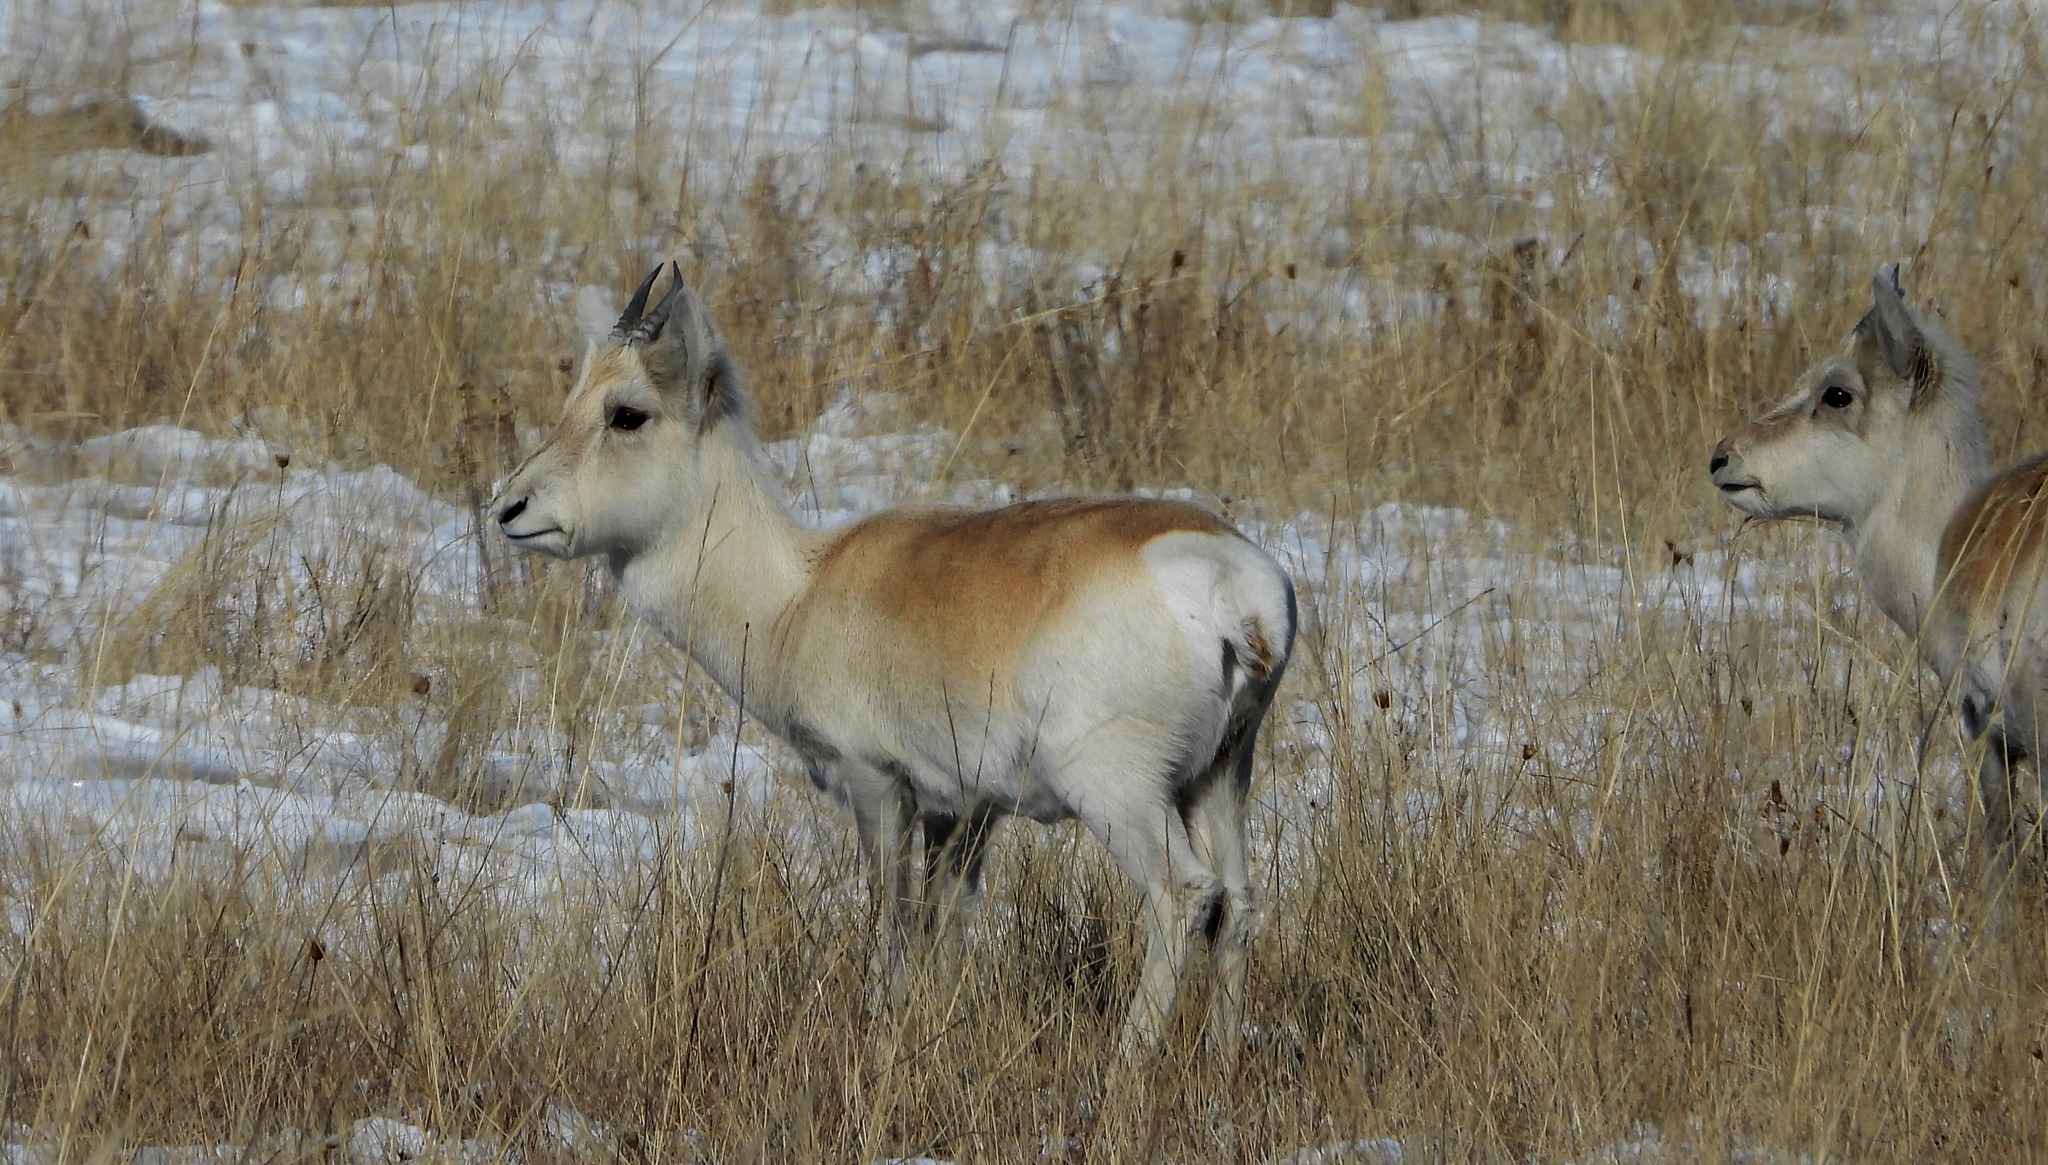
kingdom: Animalia
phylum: Chordata
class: Mammalia
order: Artiodactyla
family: Bovidae
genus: Procapra
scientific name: Procapra gutturosa
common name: Mongolian gazelle
